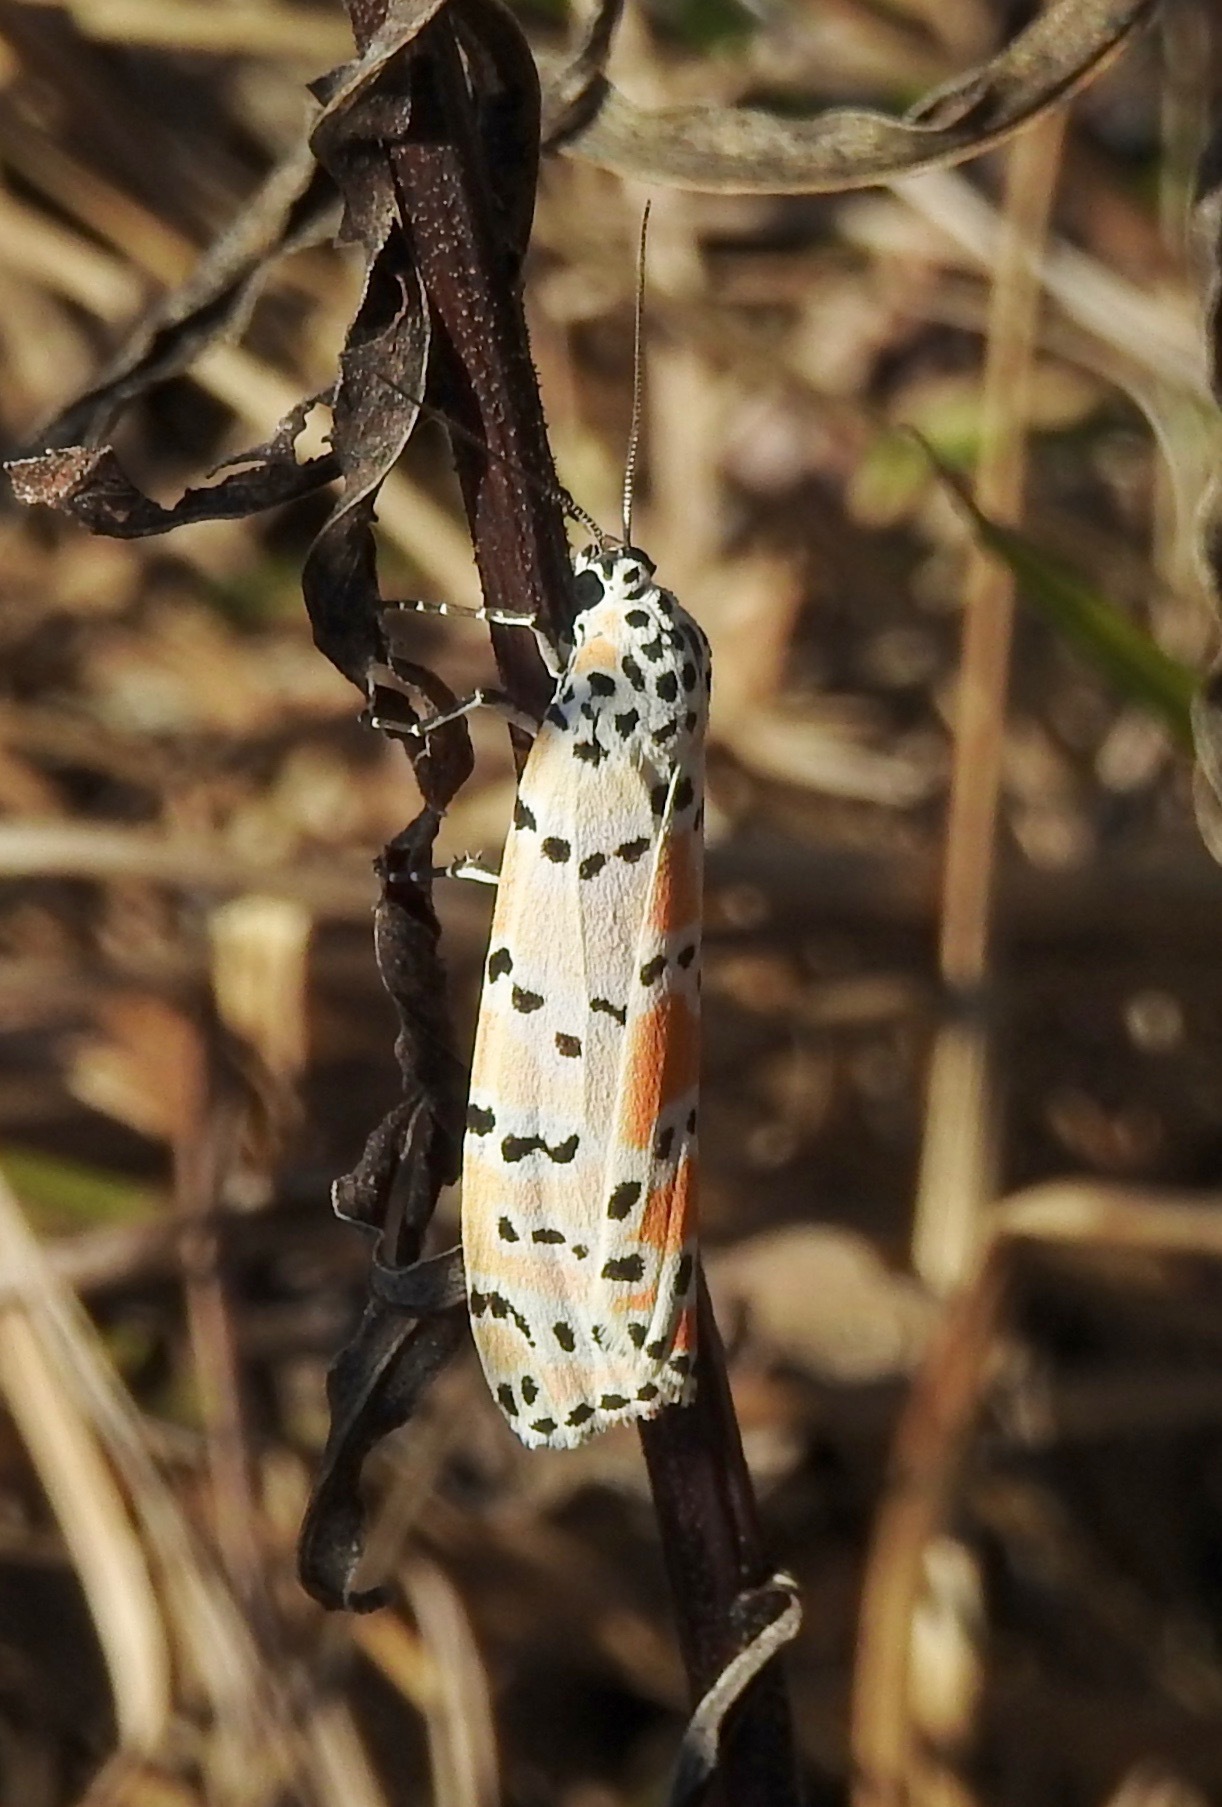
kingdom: Animalia
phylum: Arthropoda
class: Insecta
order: Lepidoptera
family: Erebidae
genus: Utetheisa
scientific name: Utetheisa ornatrix
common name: Beautiful utetheisa
